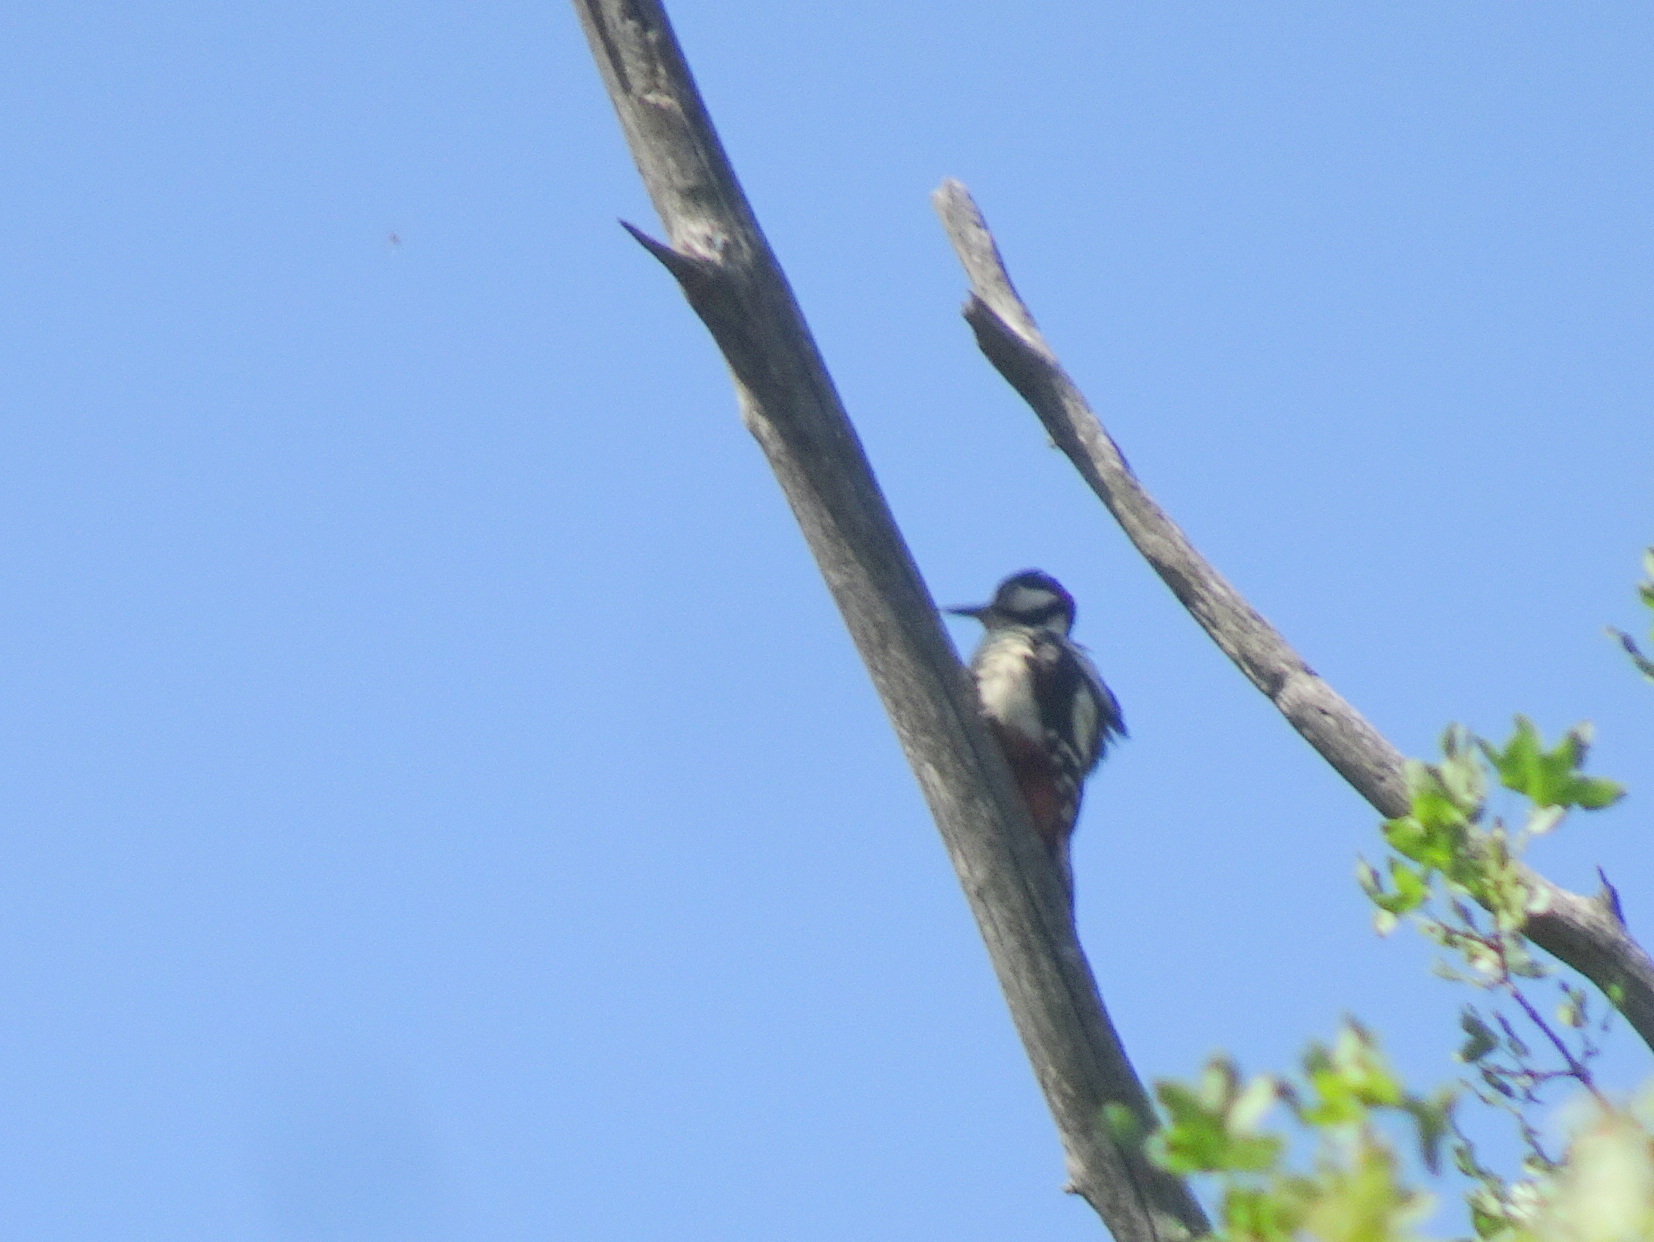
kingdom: Animalia
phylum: Chordata
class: Aves
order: Piciformes
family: Picidae
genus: Dendrocopos
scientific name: Dendrocopos major
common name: Great spotted woodpecker
